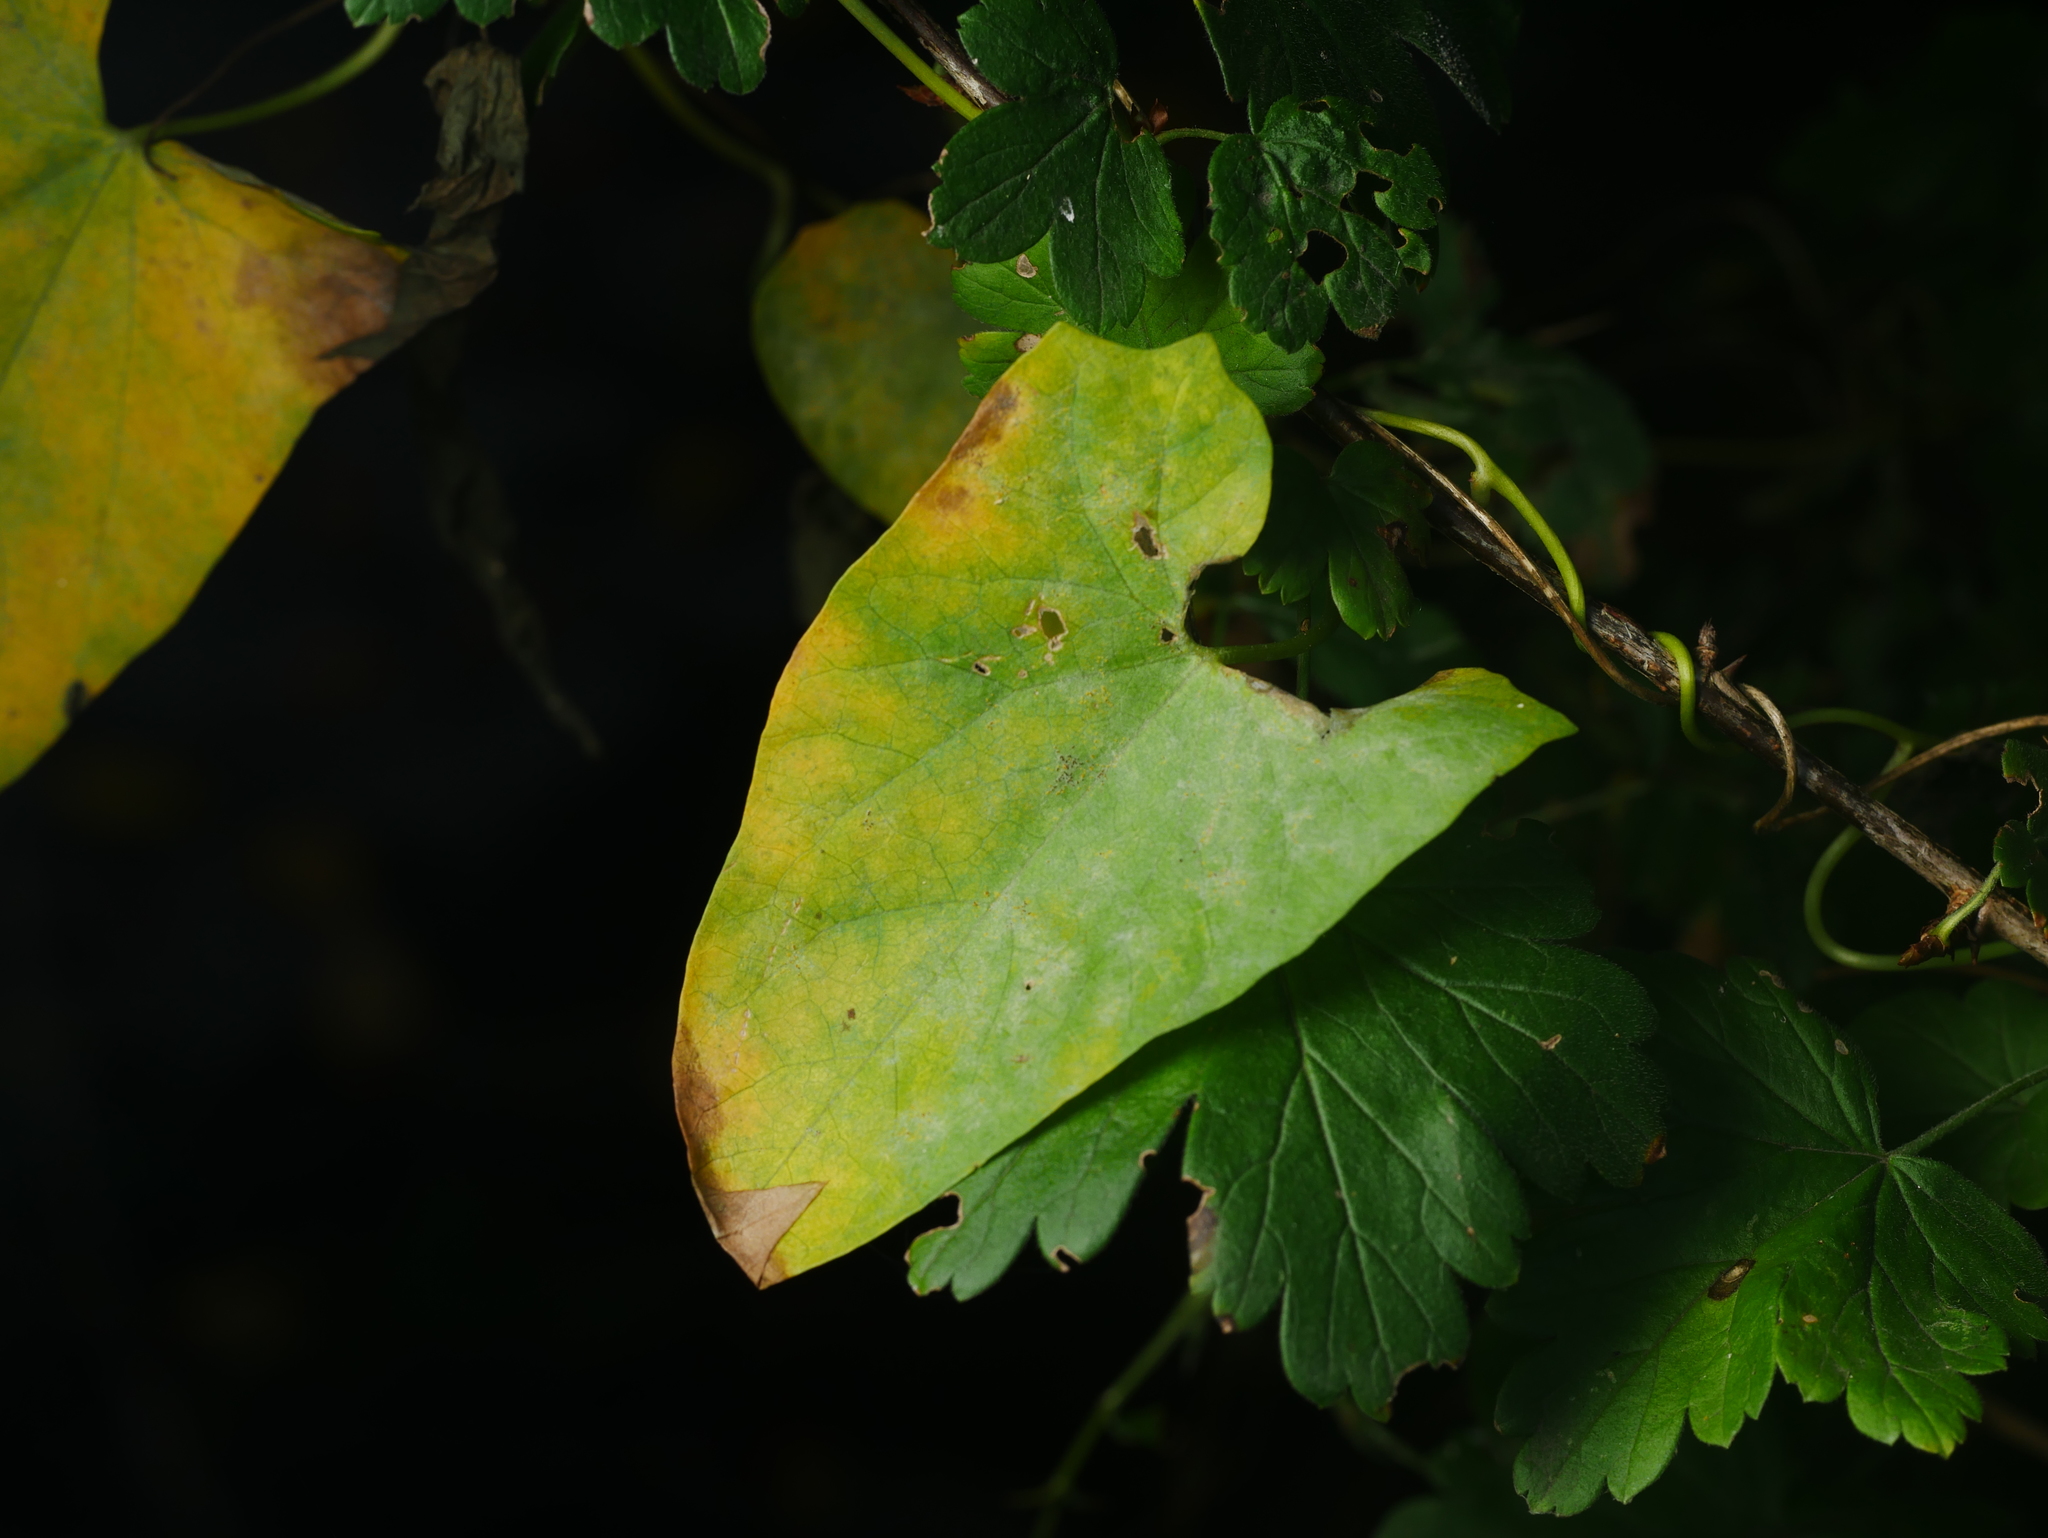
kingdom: Fungi
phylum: Ascomycota
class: Leotiomycetes
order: Helotiales
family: Erysiphaceae
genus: Erysiphe
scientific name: Erysiphe convolvuli
